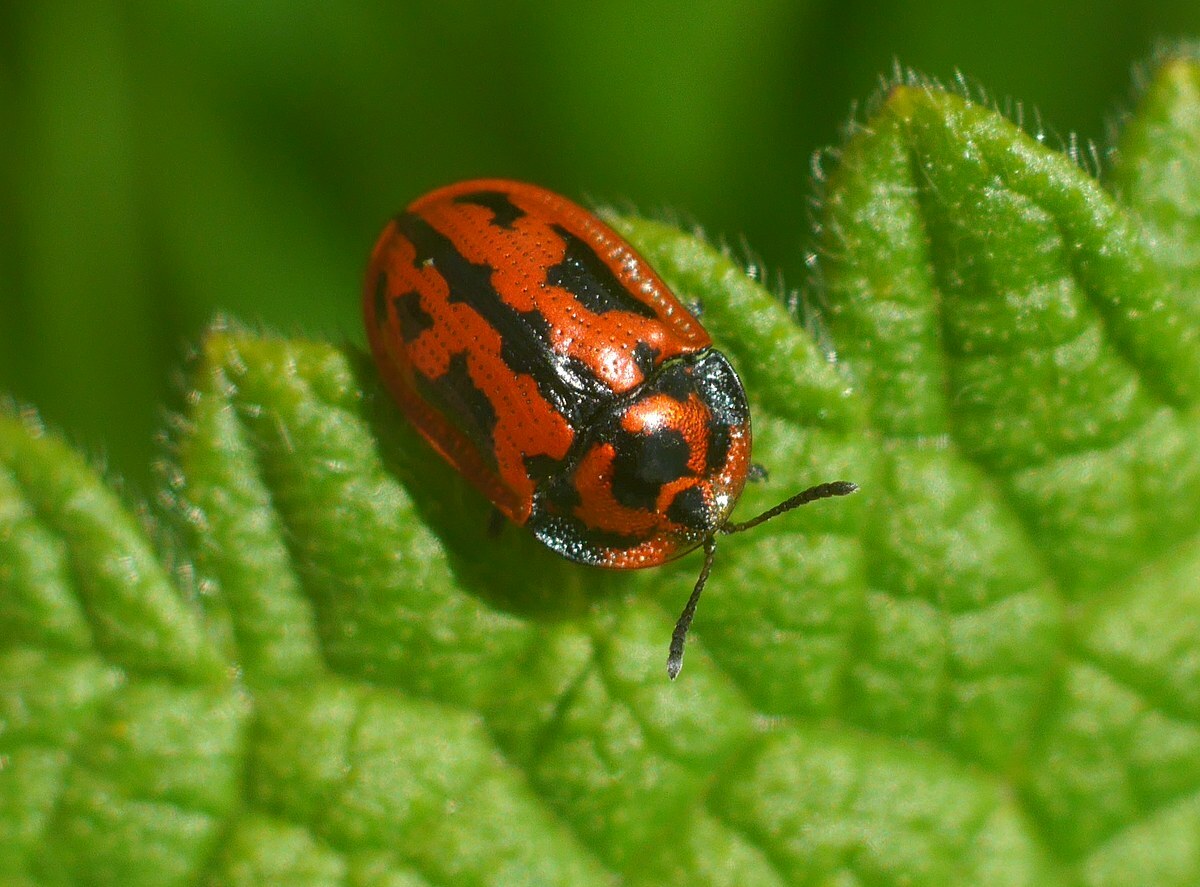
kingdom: Animalia
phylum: Arthropoda
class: Insecta
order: Coleoptera
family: Chrysomelidae
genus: Pilemostoma
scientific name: Pilemostoma fastuosa
